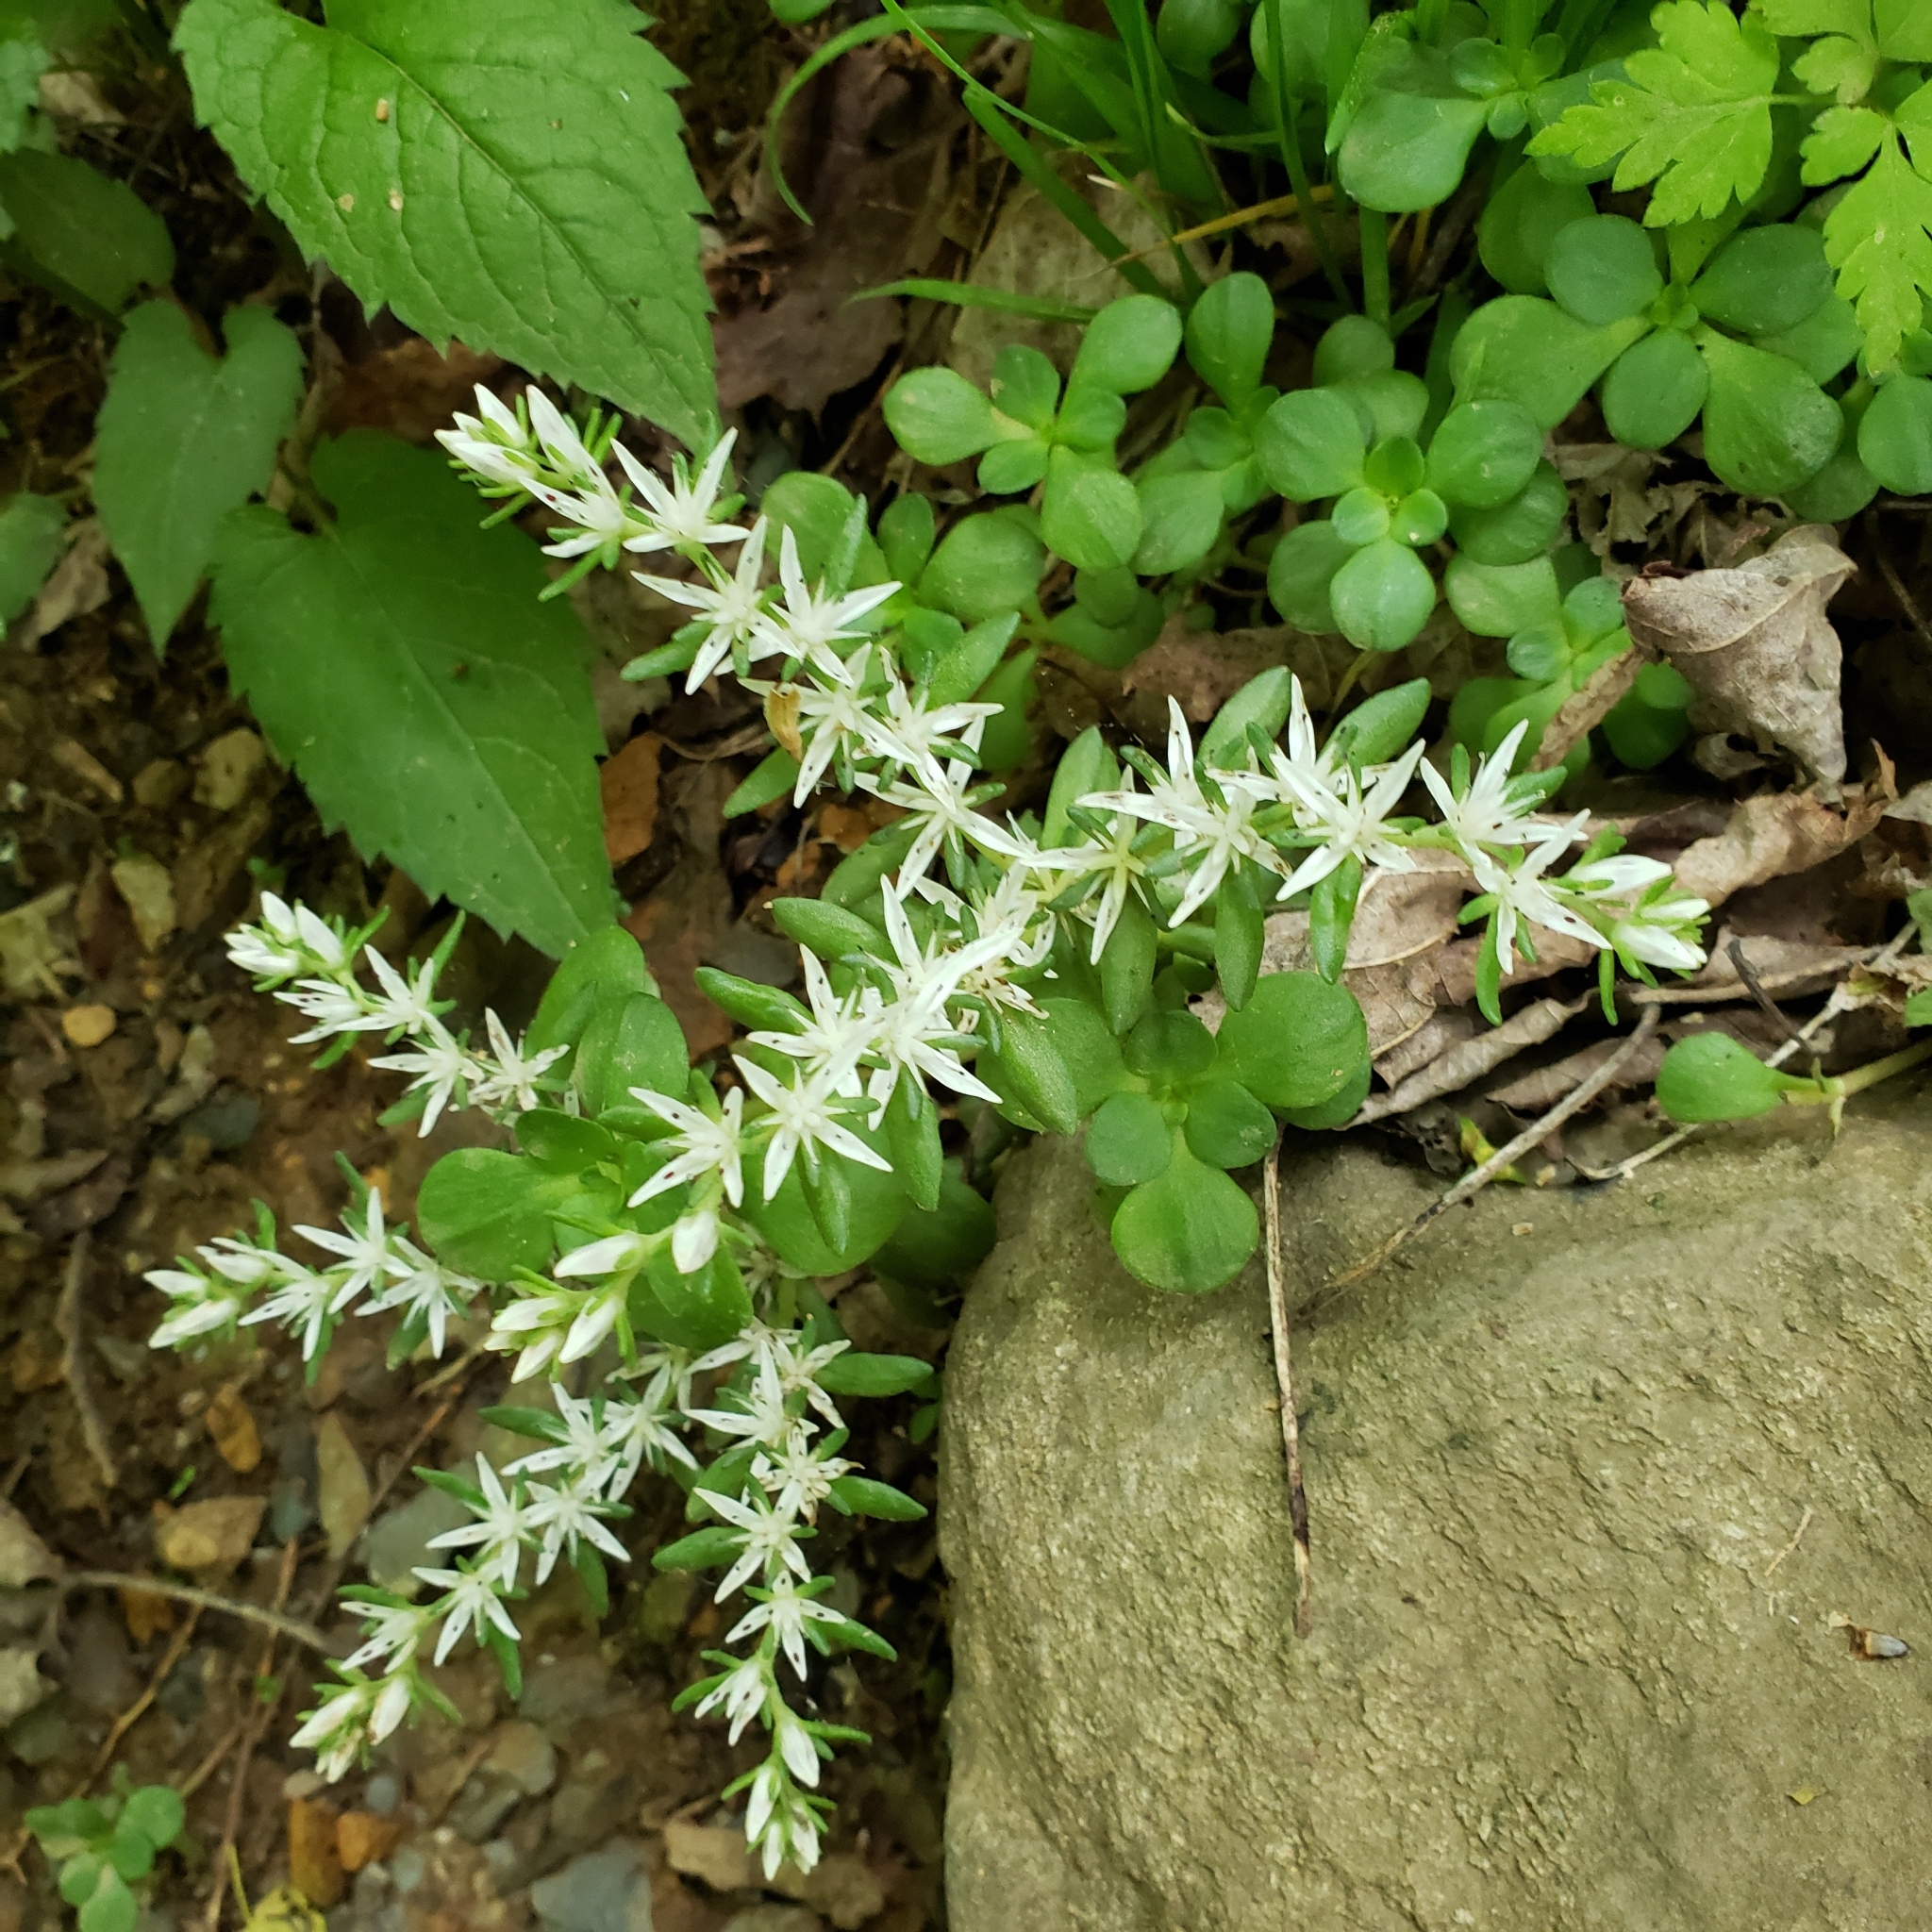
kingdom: Plantae
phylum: Tracheophyta
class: Magnoliopsida
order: Saxifragales
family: Crassulaceae
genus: Sedum
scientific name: Sedum ternatum
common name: Wild stonecrop
